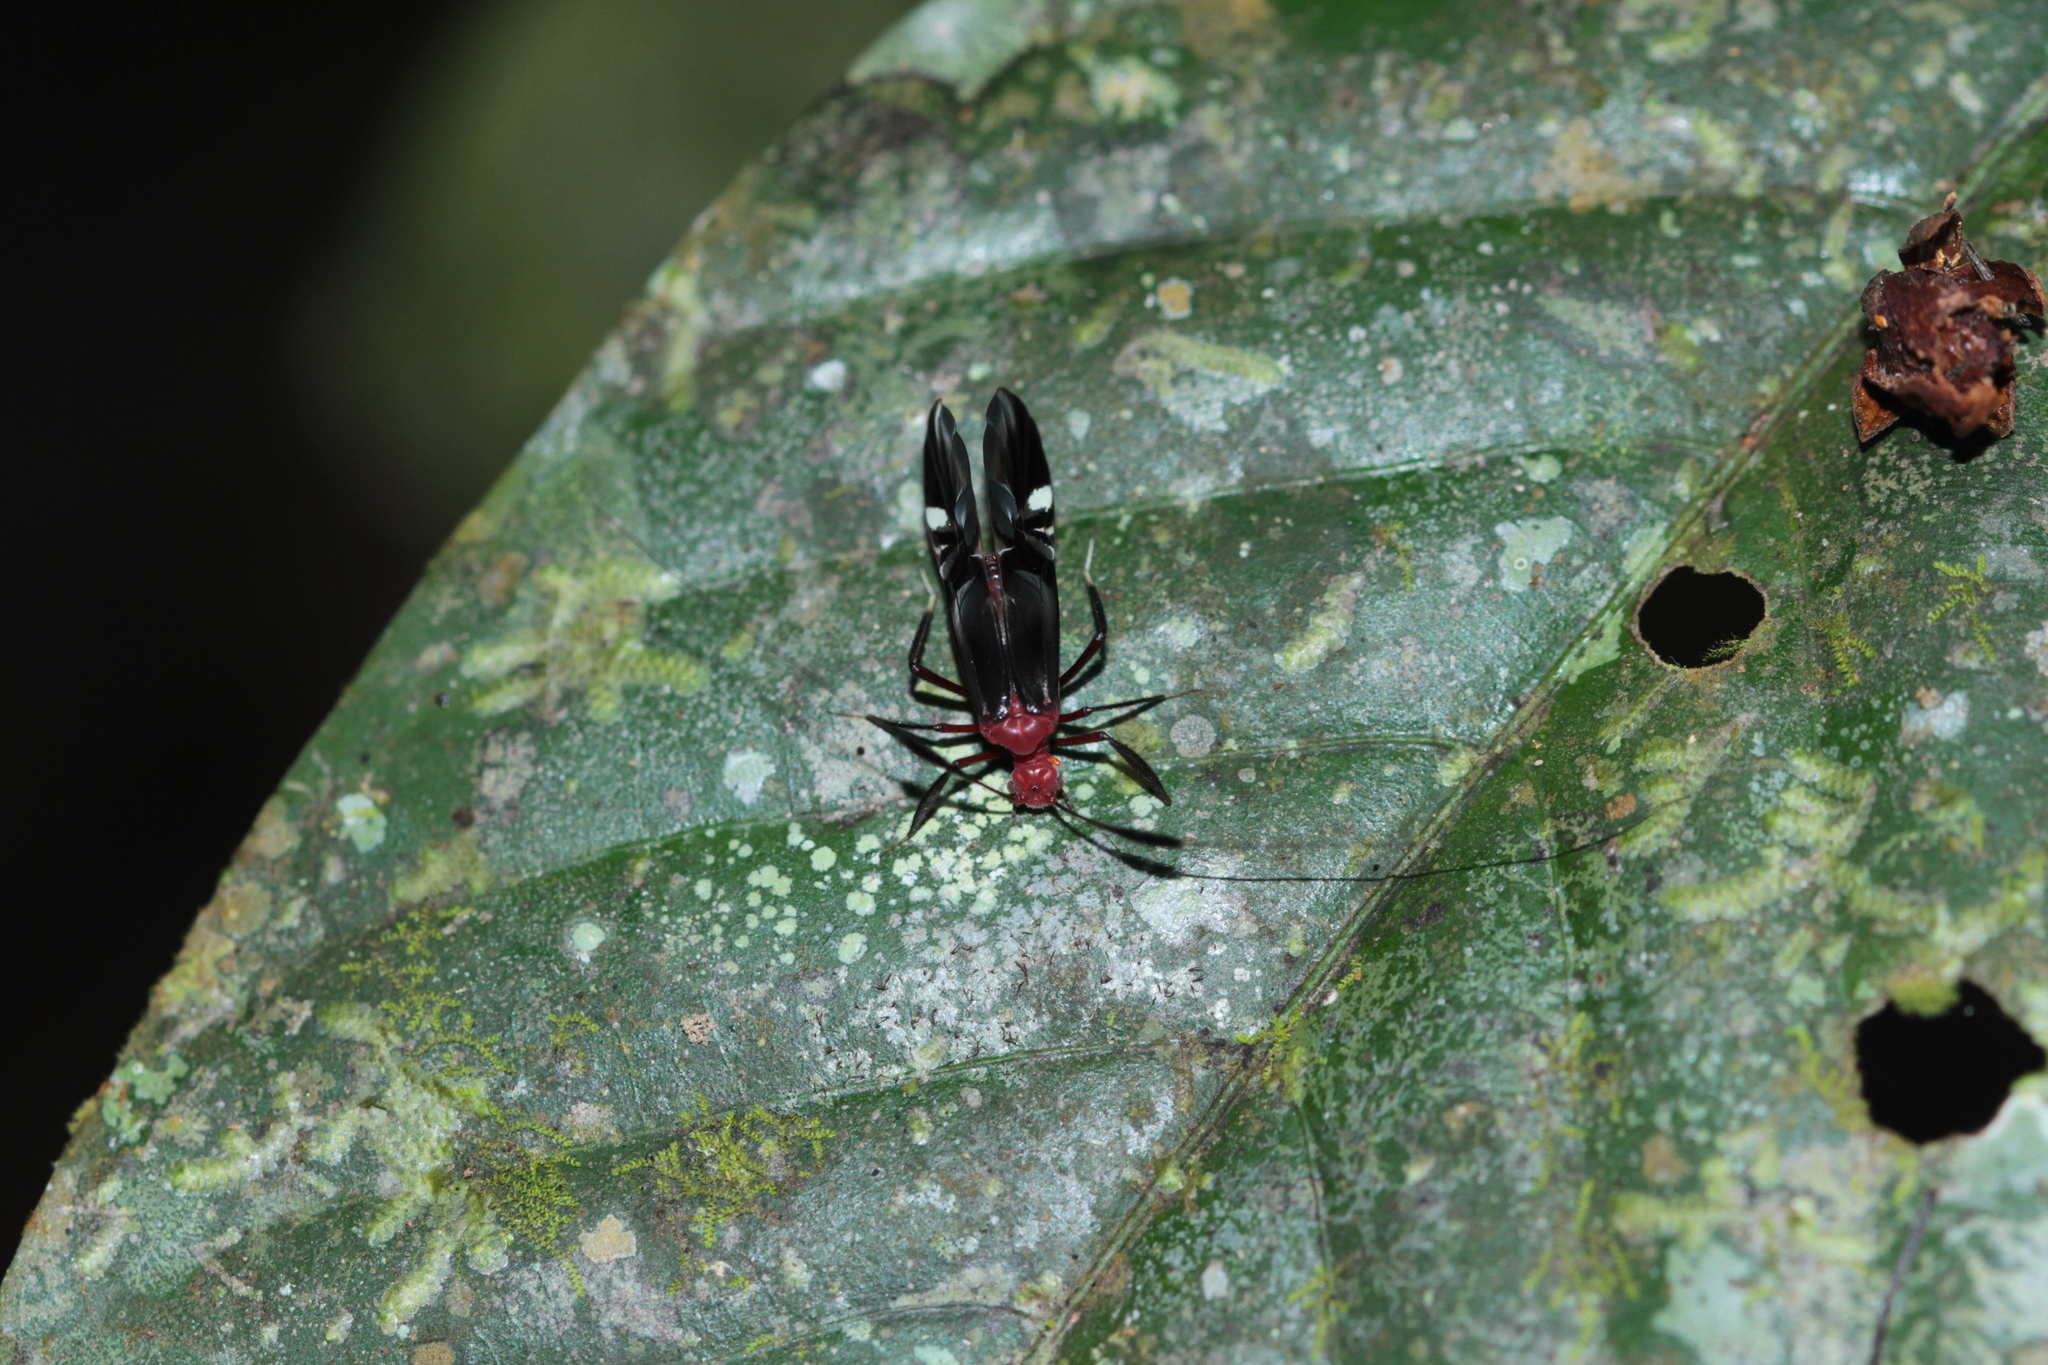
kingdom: Animalia
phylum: Arthropoda
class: Insecta
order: Psocodea
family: Psocidae
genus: Thyrsophorus
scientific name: Thyrsophorus speciosus
